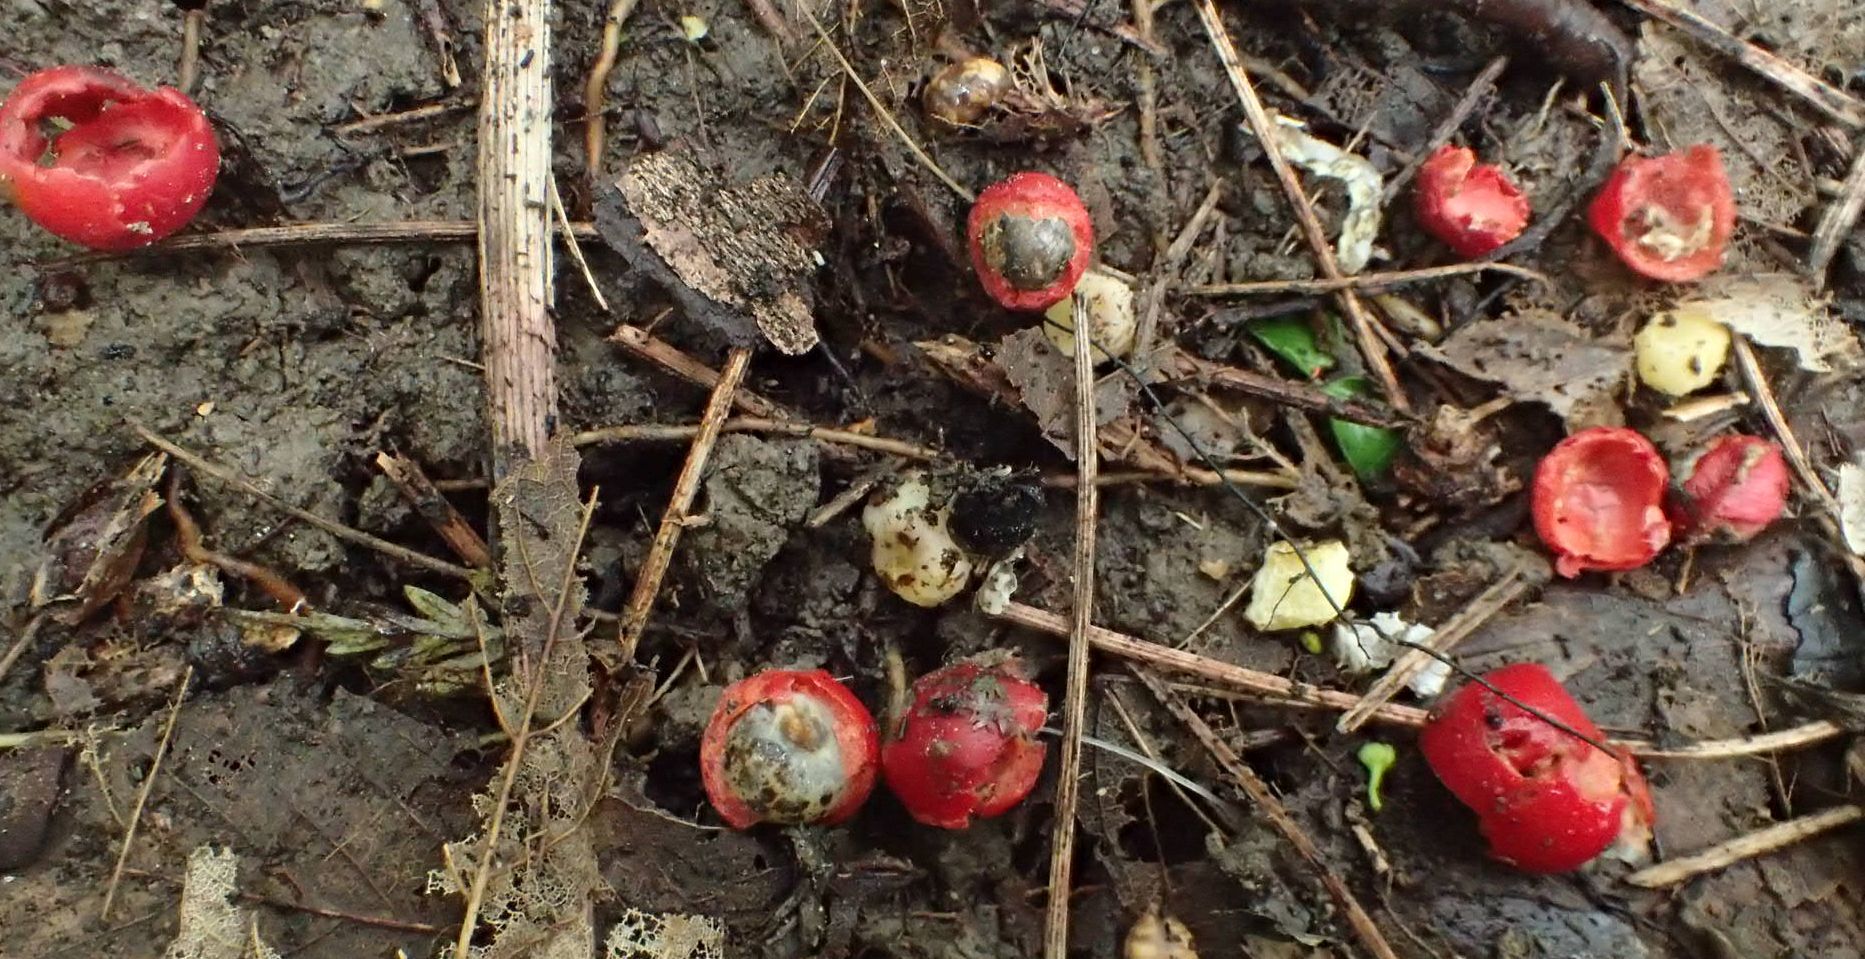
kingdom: Plantae
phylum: Tracheophyta
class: Liliopsida
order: Liliales
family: Ripogonaceae
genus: Ripogonum
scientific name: Ripogonum scandens
